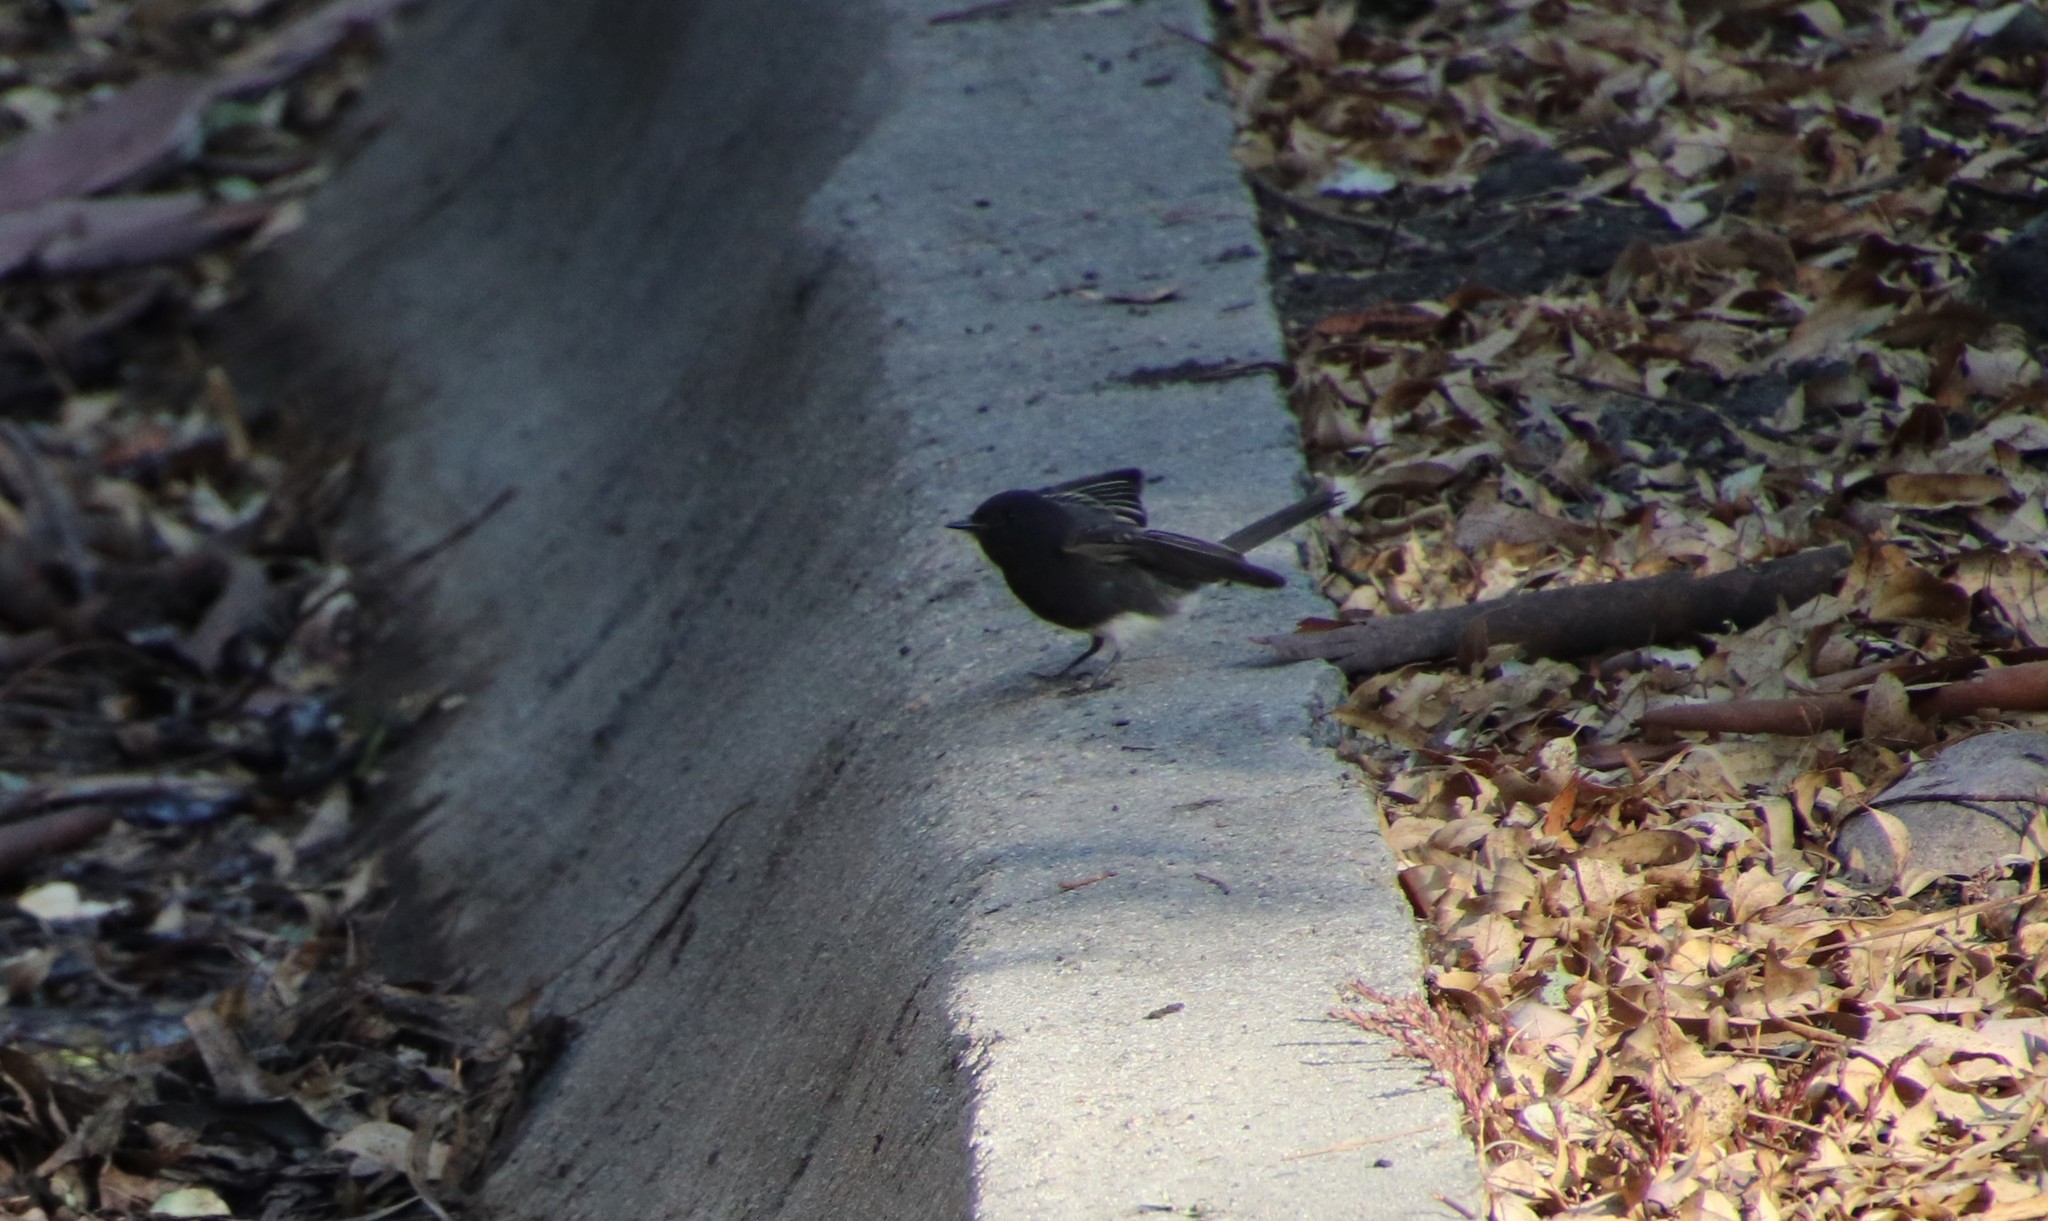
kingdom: Animalia
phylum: Chordata
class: Aves
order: Passeriformes
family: Tyrannidae
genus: Sayornis
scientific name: Sayornis nigricans
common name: Black phoebe
